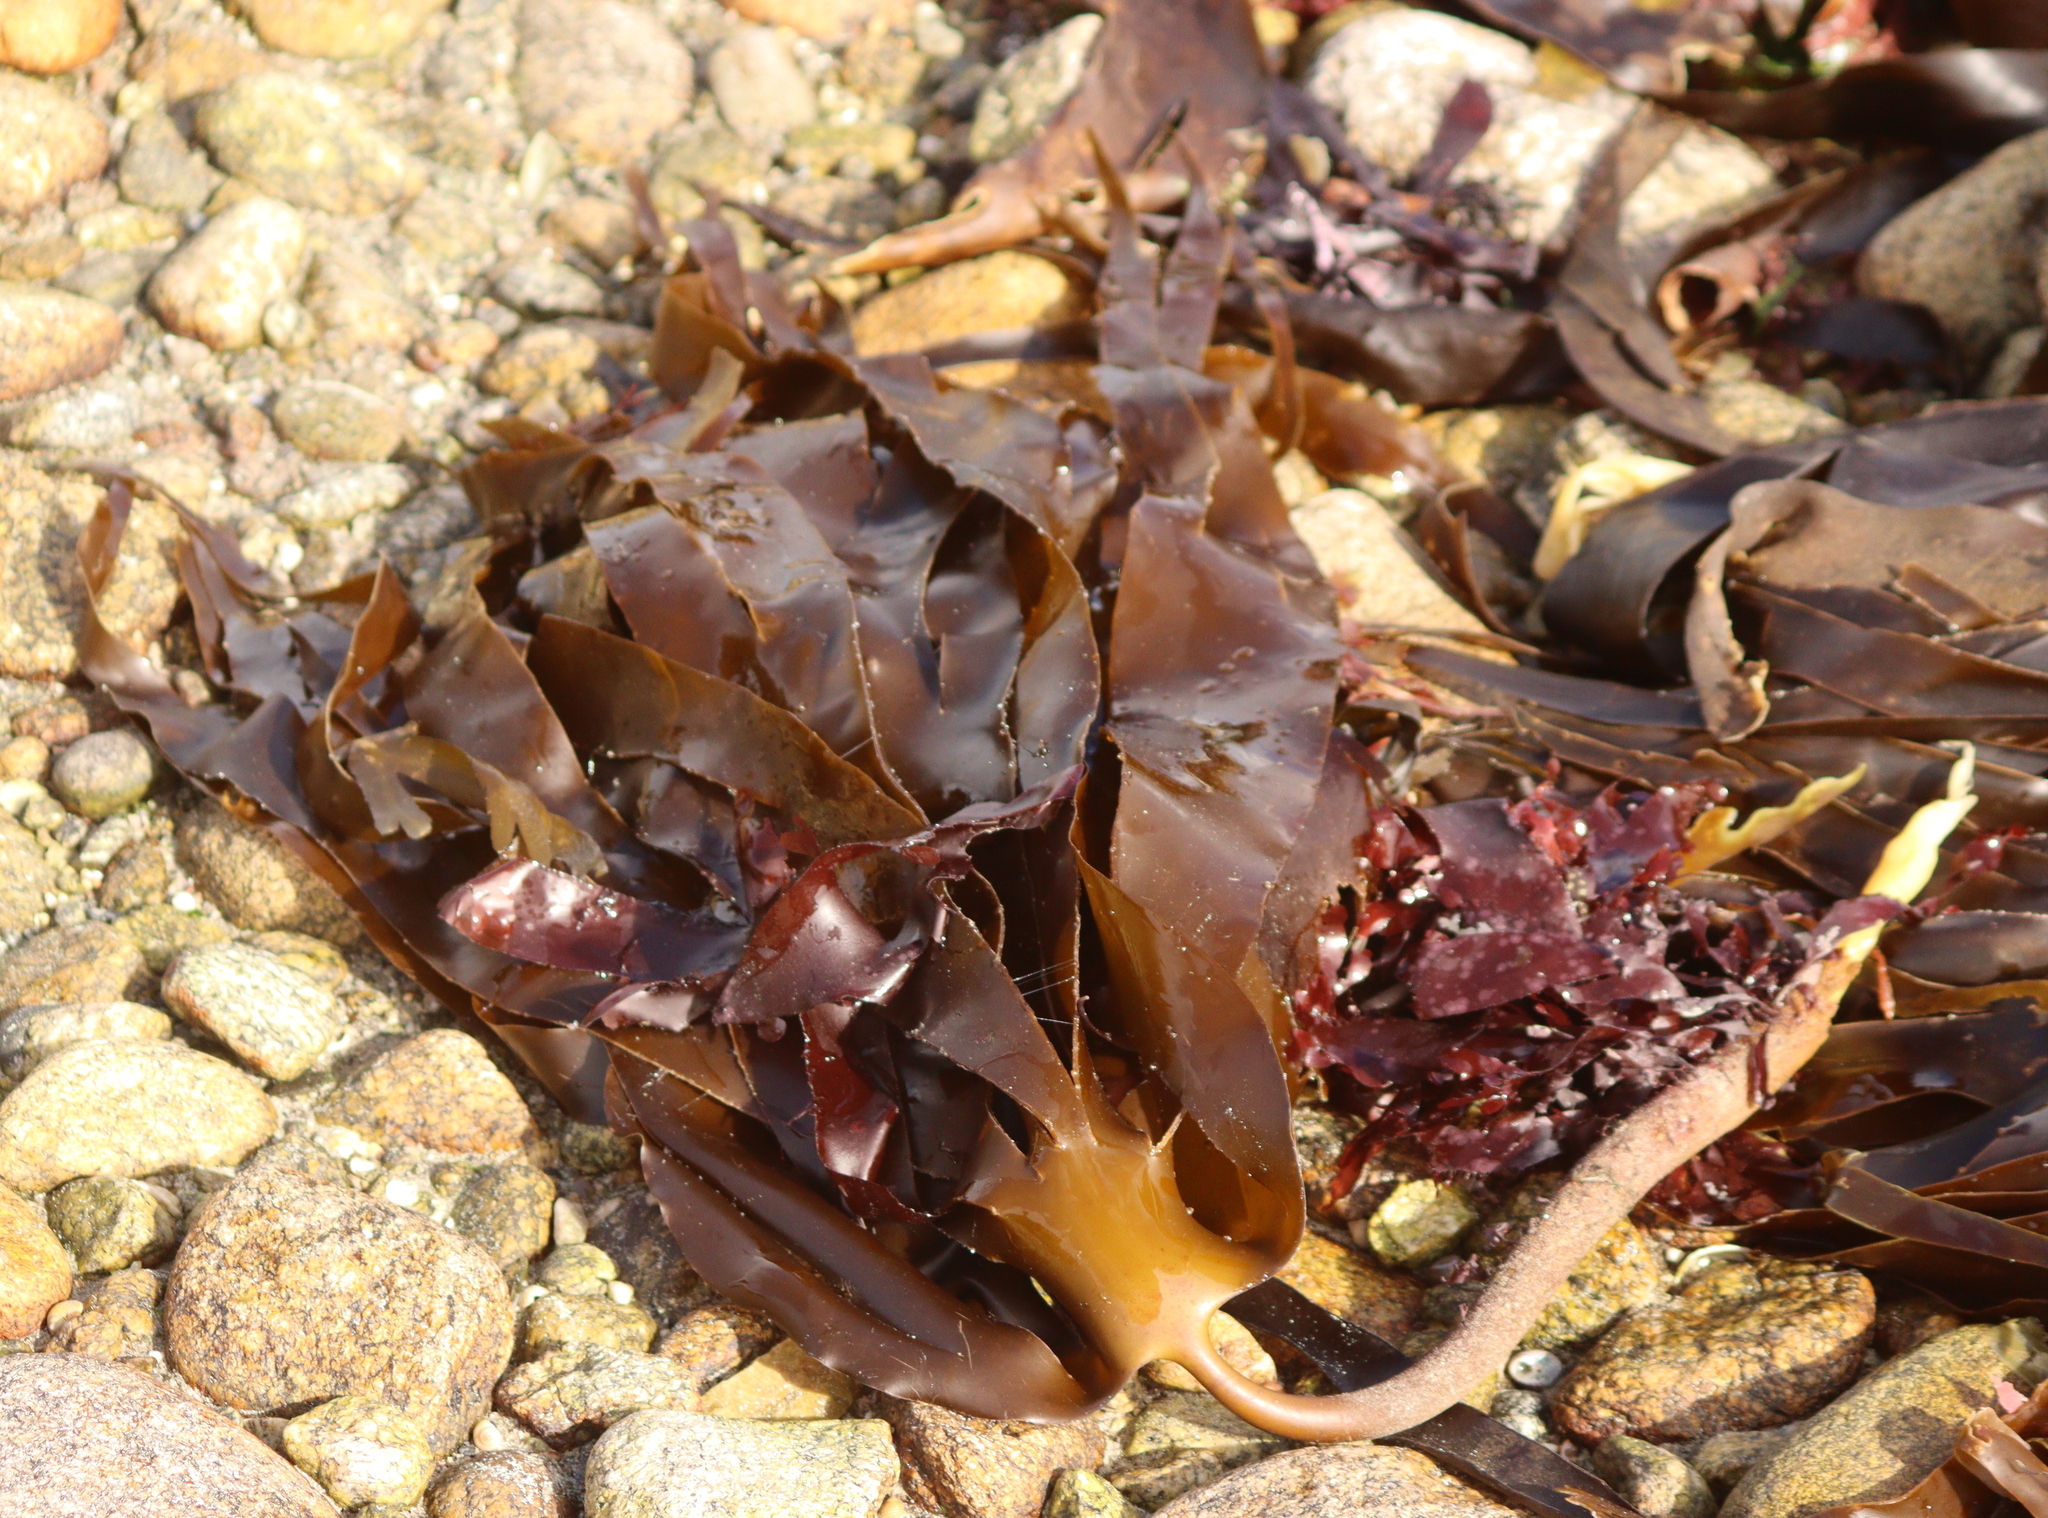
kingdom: Chromista
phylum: Ochrophyta
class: Phaeophyceae
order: Laminariales
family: Laminariaceae
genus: Laminaria
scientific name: Laminaria hyperborea
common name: Cuvie
